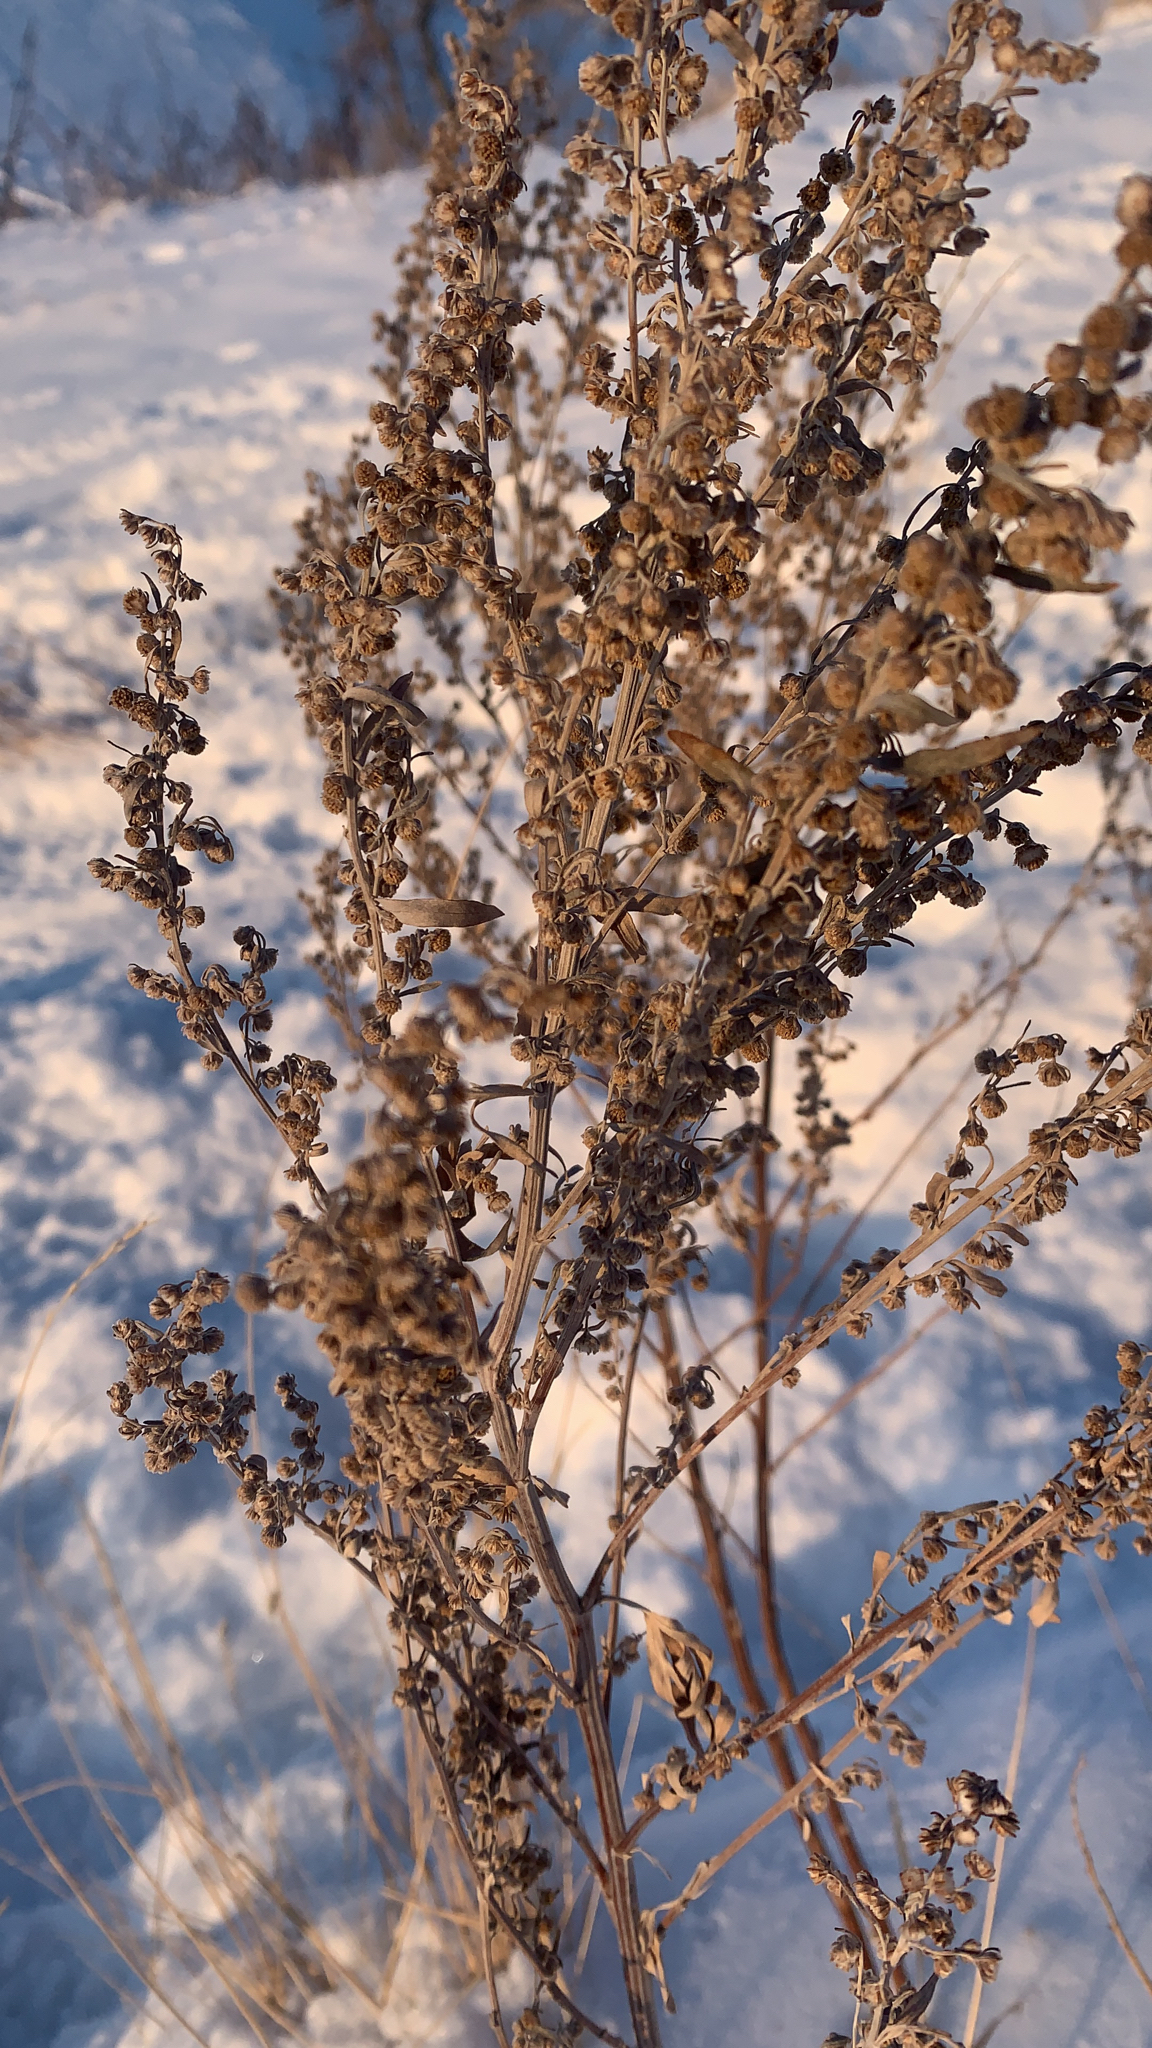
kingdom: Plantae
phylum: Tracheophyta
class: Magnoliopsida
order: Asterales
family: Asteraceae
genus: Artemisia
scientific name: Artemisia absinthium
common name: Wormwood
